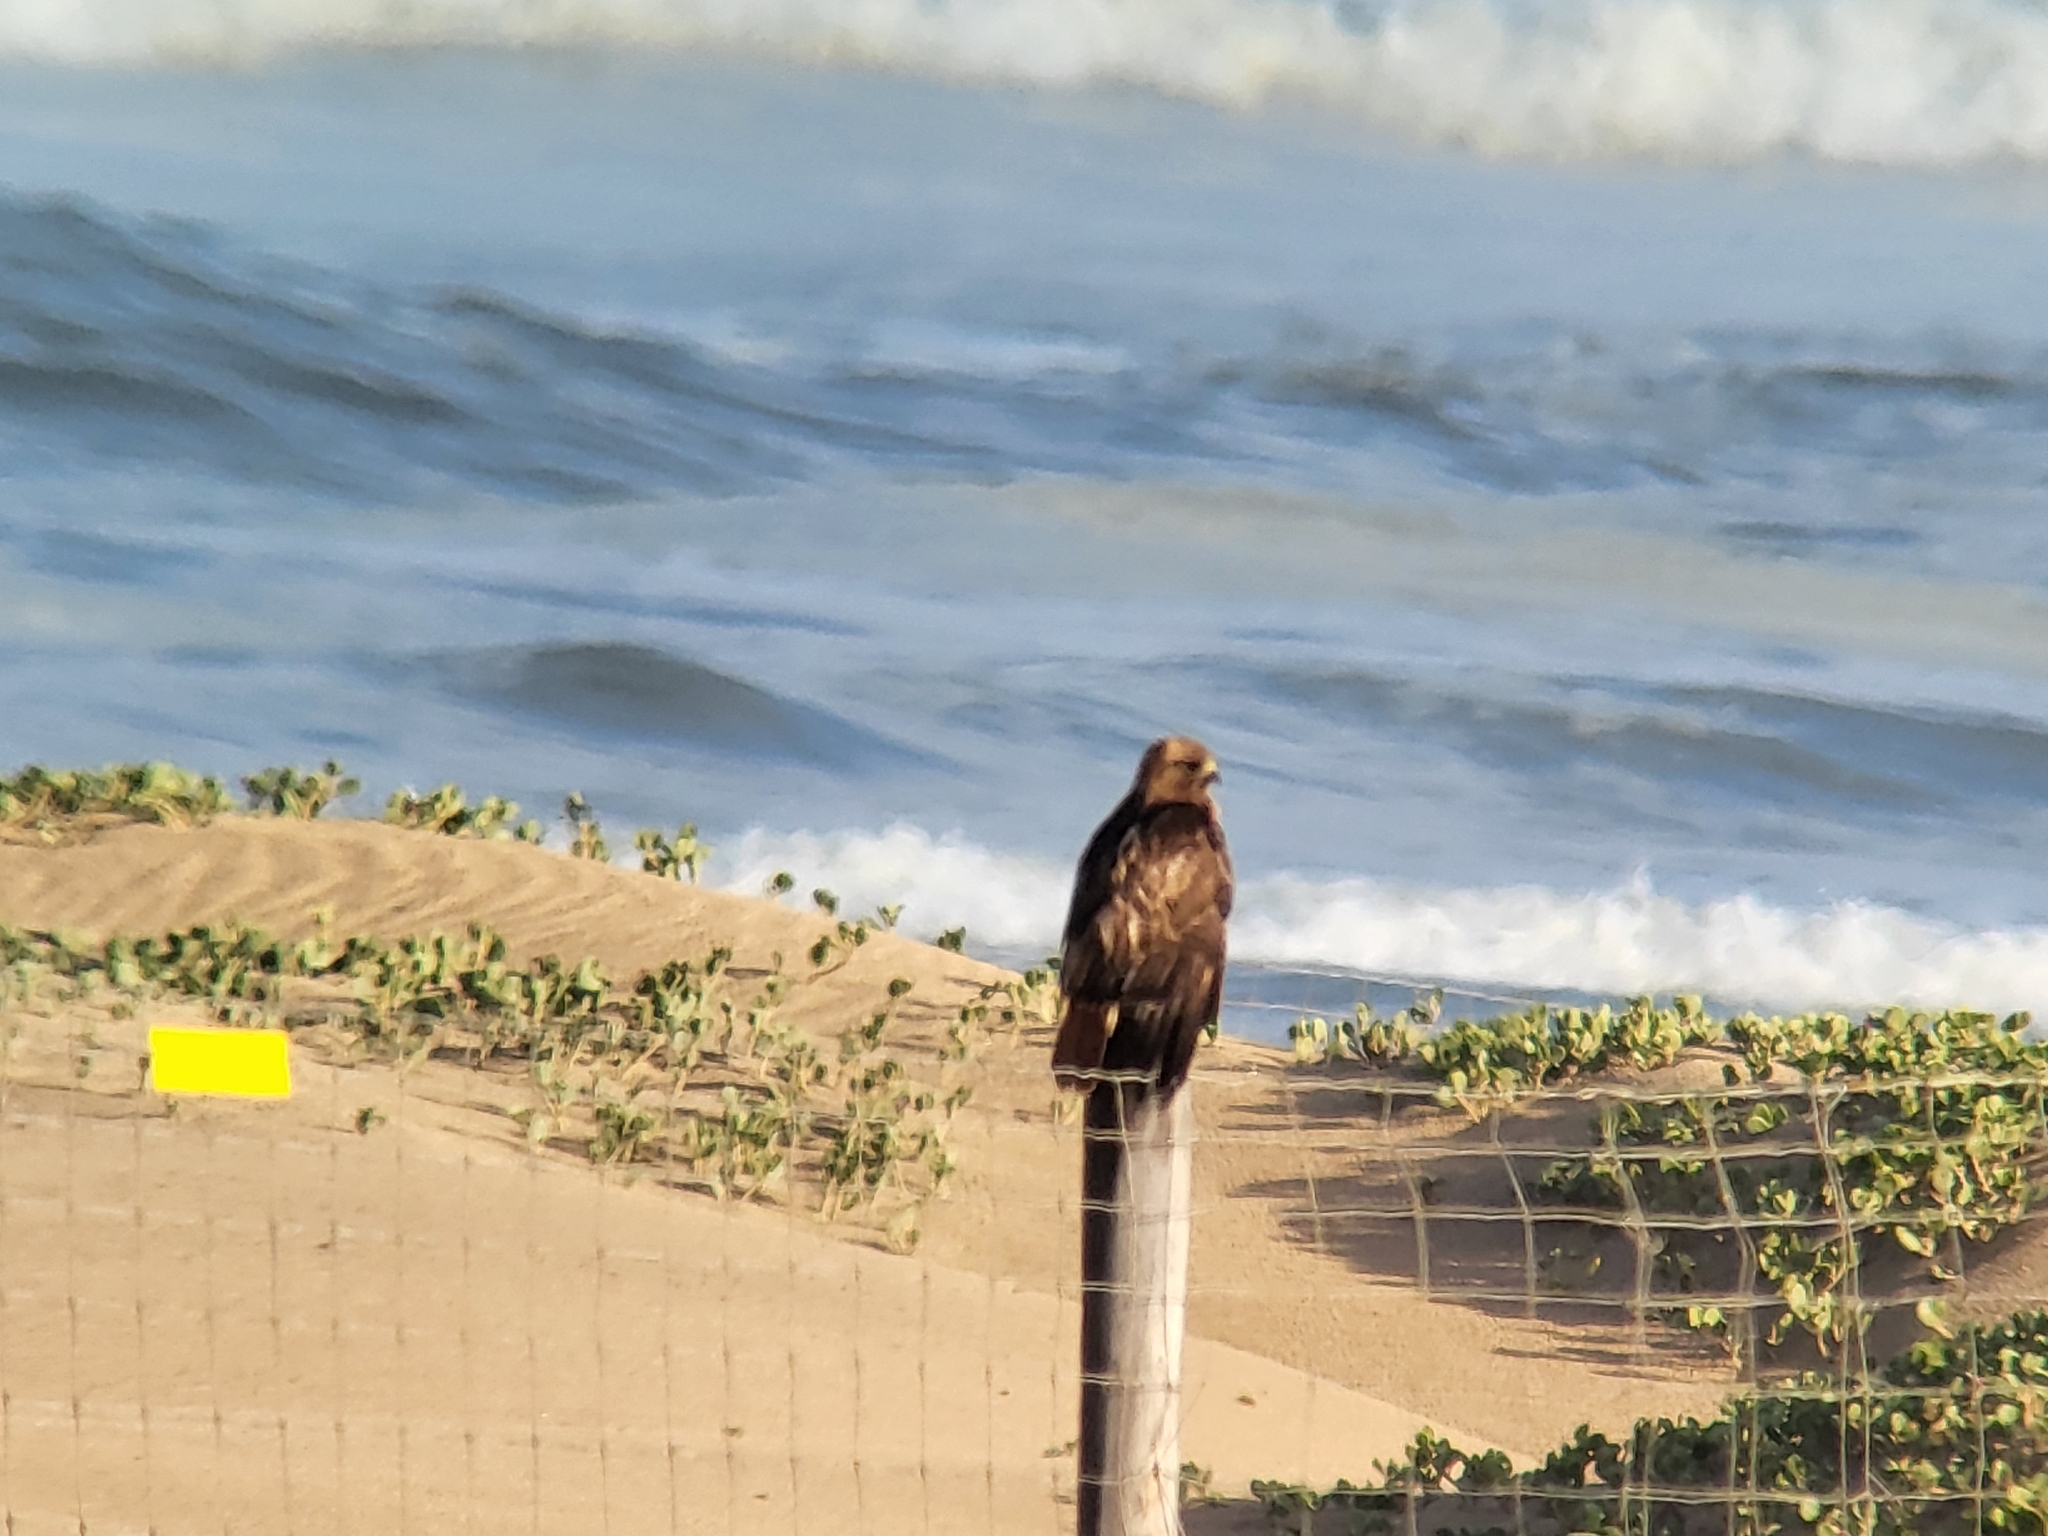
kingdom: Animalia
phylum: Chordata
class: Aves
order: Accipitriformes
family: Accipitridae
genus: Buteo
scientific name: Buteo jamaicensis
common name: Red-tailed hawk
